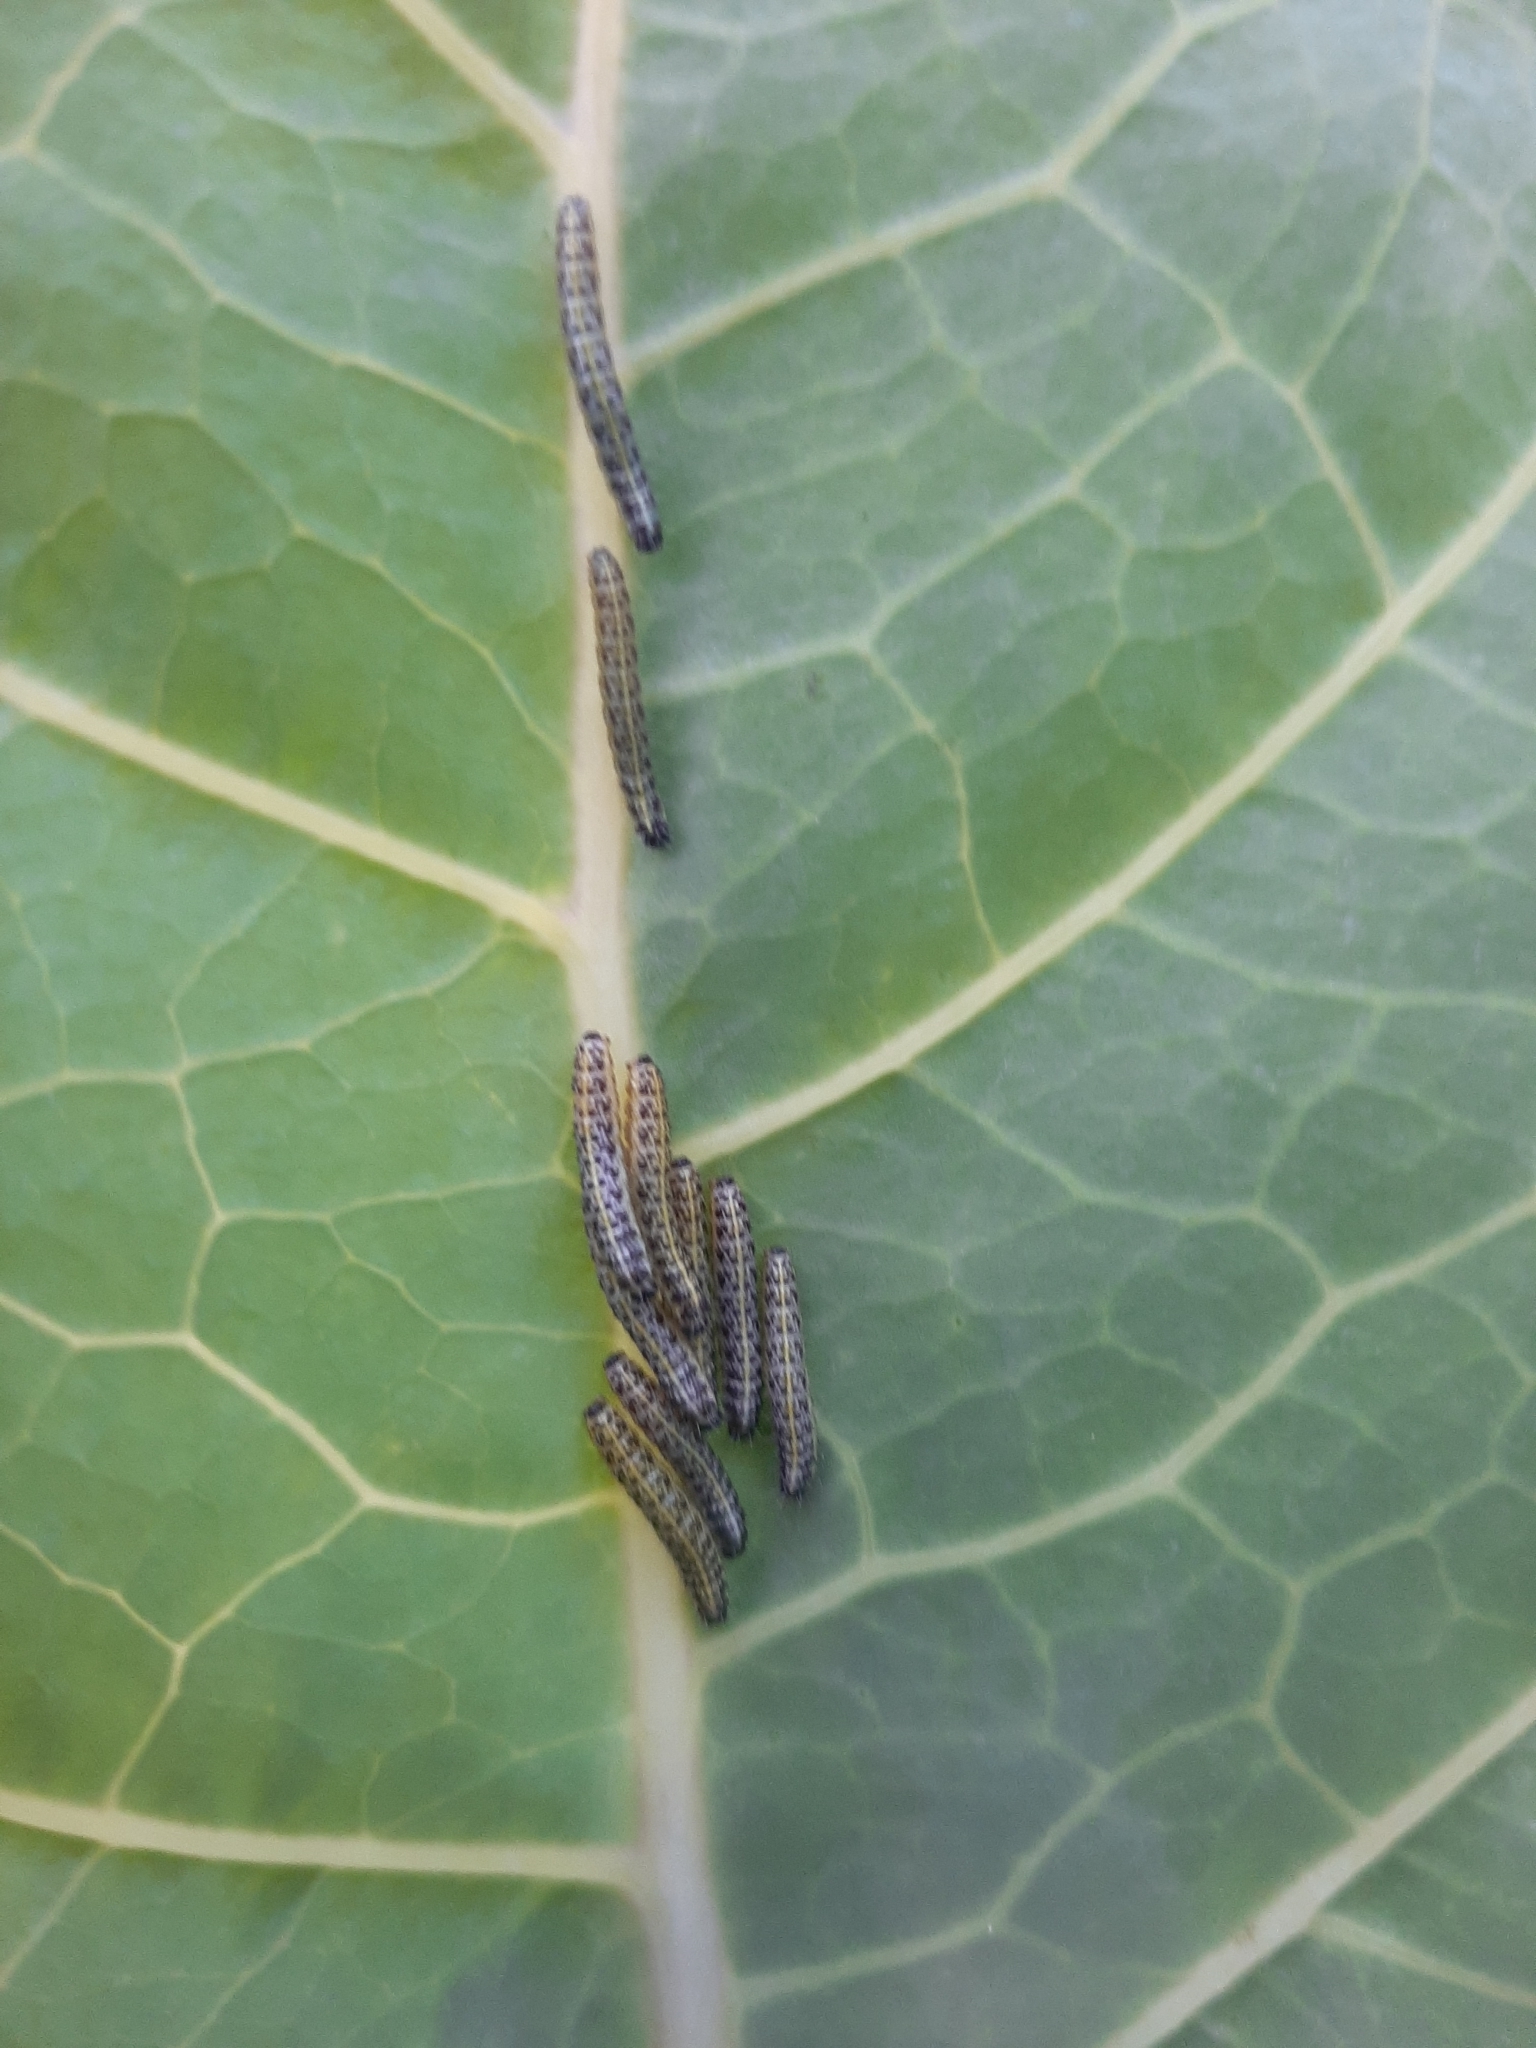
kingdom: Animalia
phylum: Arthropoda
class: Insecta
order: Lepidoptera
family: Pieridae
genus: Pieris
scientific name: Pieris brassicae
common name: Large white
